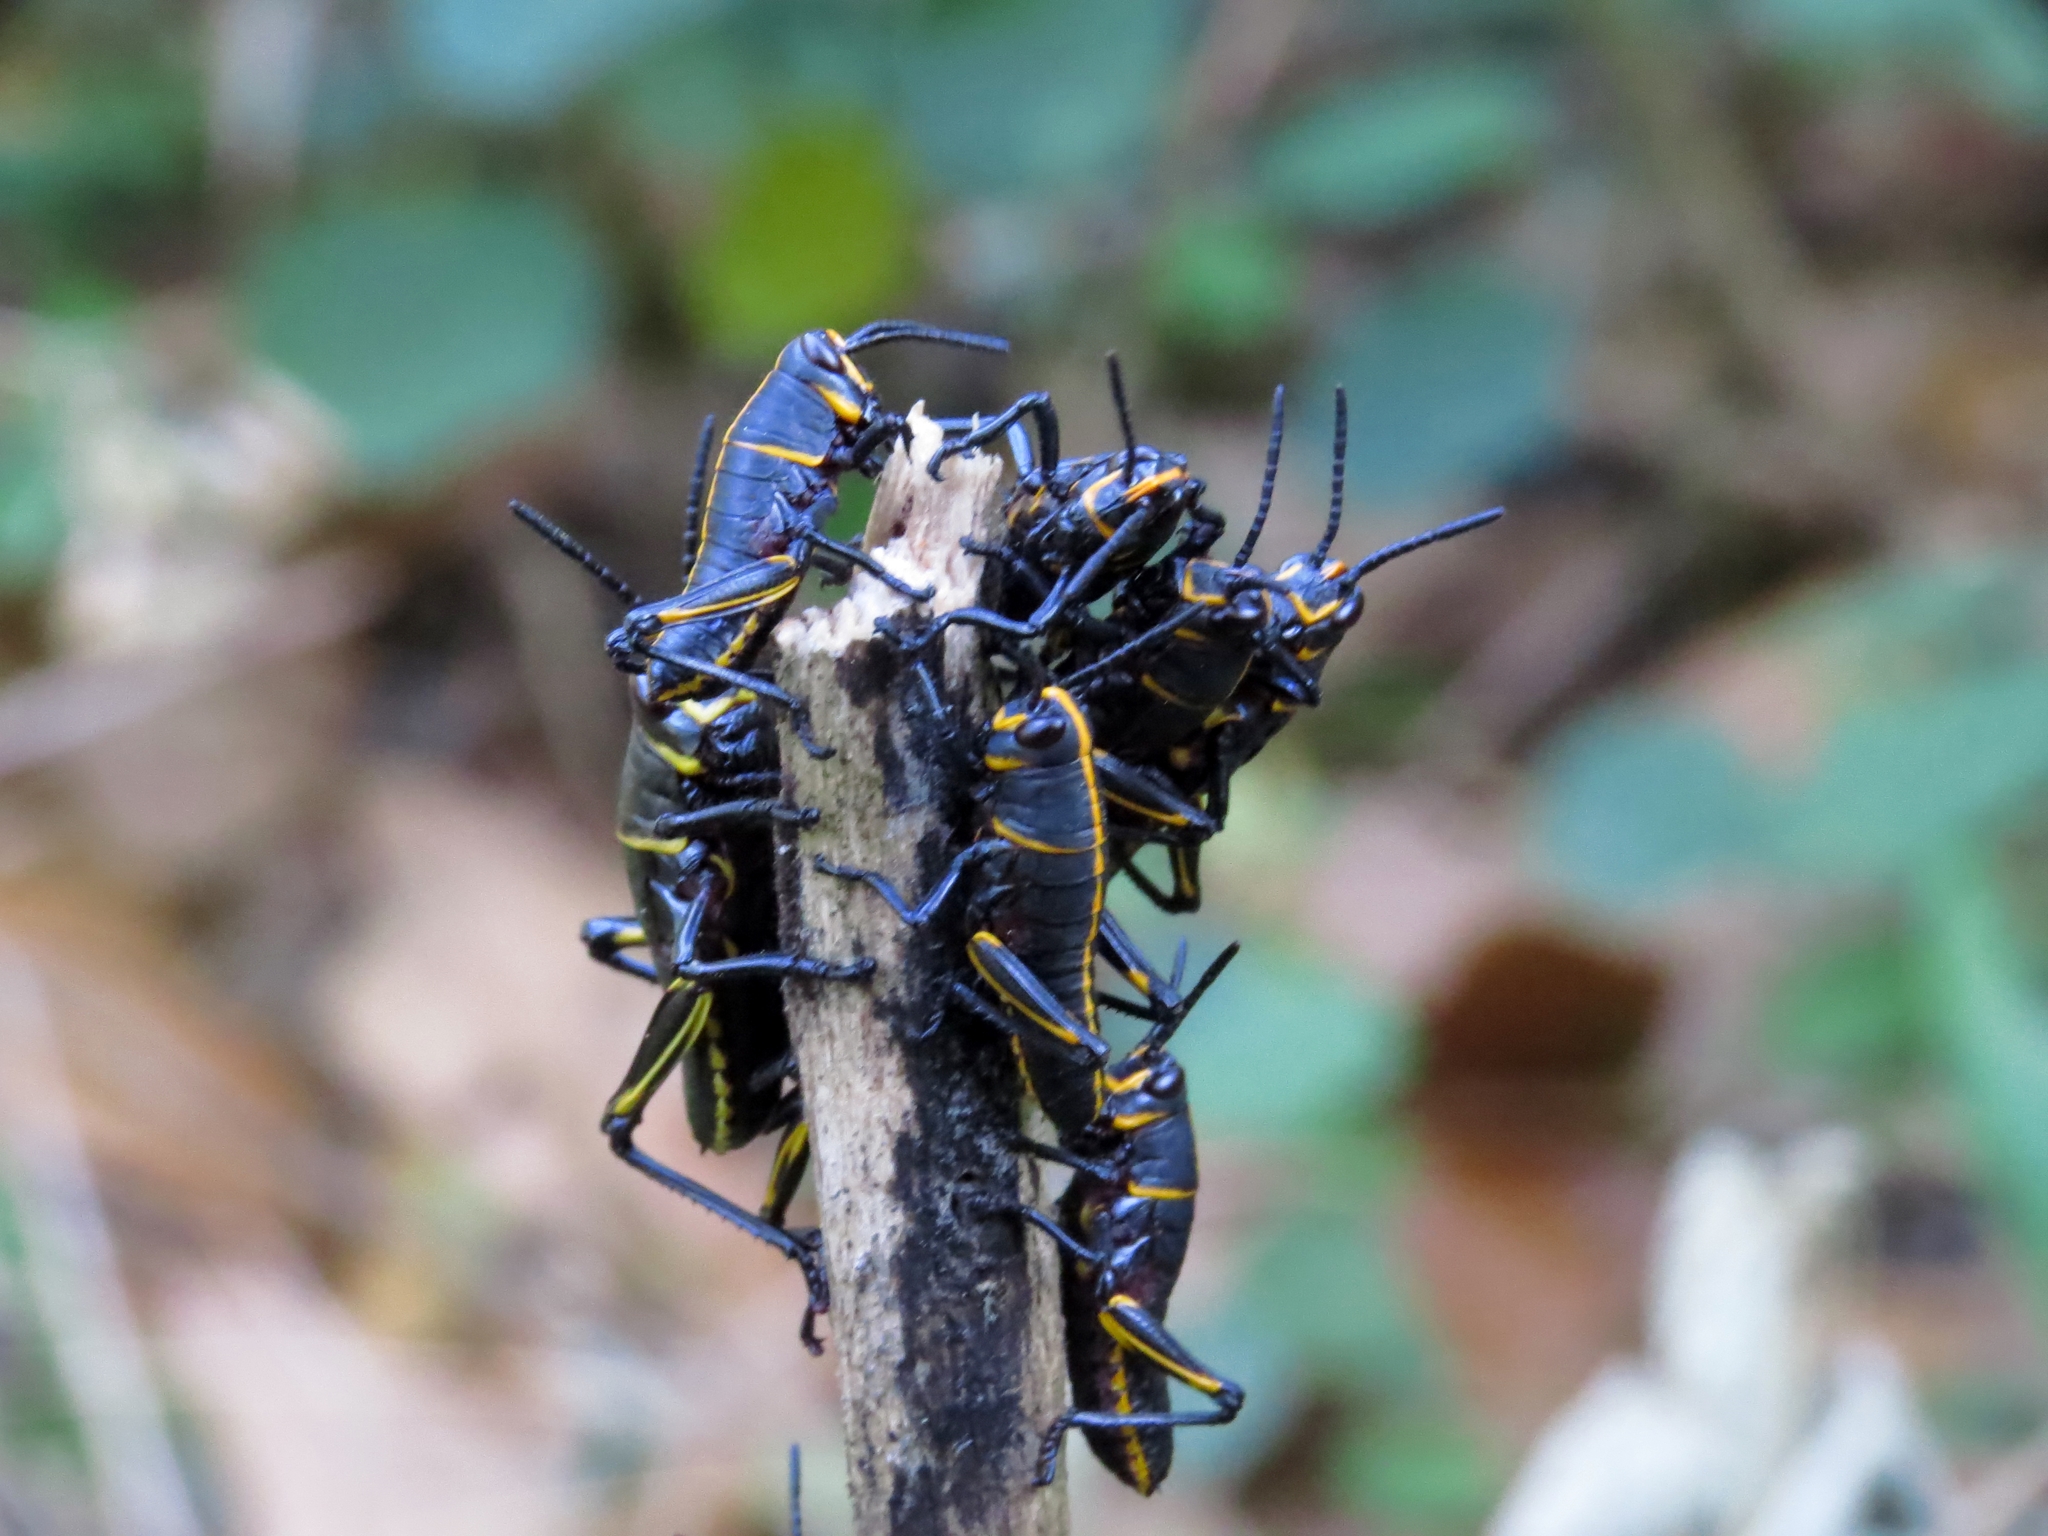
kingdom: Animalia
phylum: Arthropoda
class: Insecta
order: Orthoptera
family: Romaleidae
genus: Romalea
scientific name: Romalea microptera
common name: Eastern lubber grasshopper
